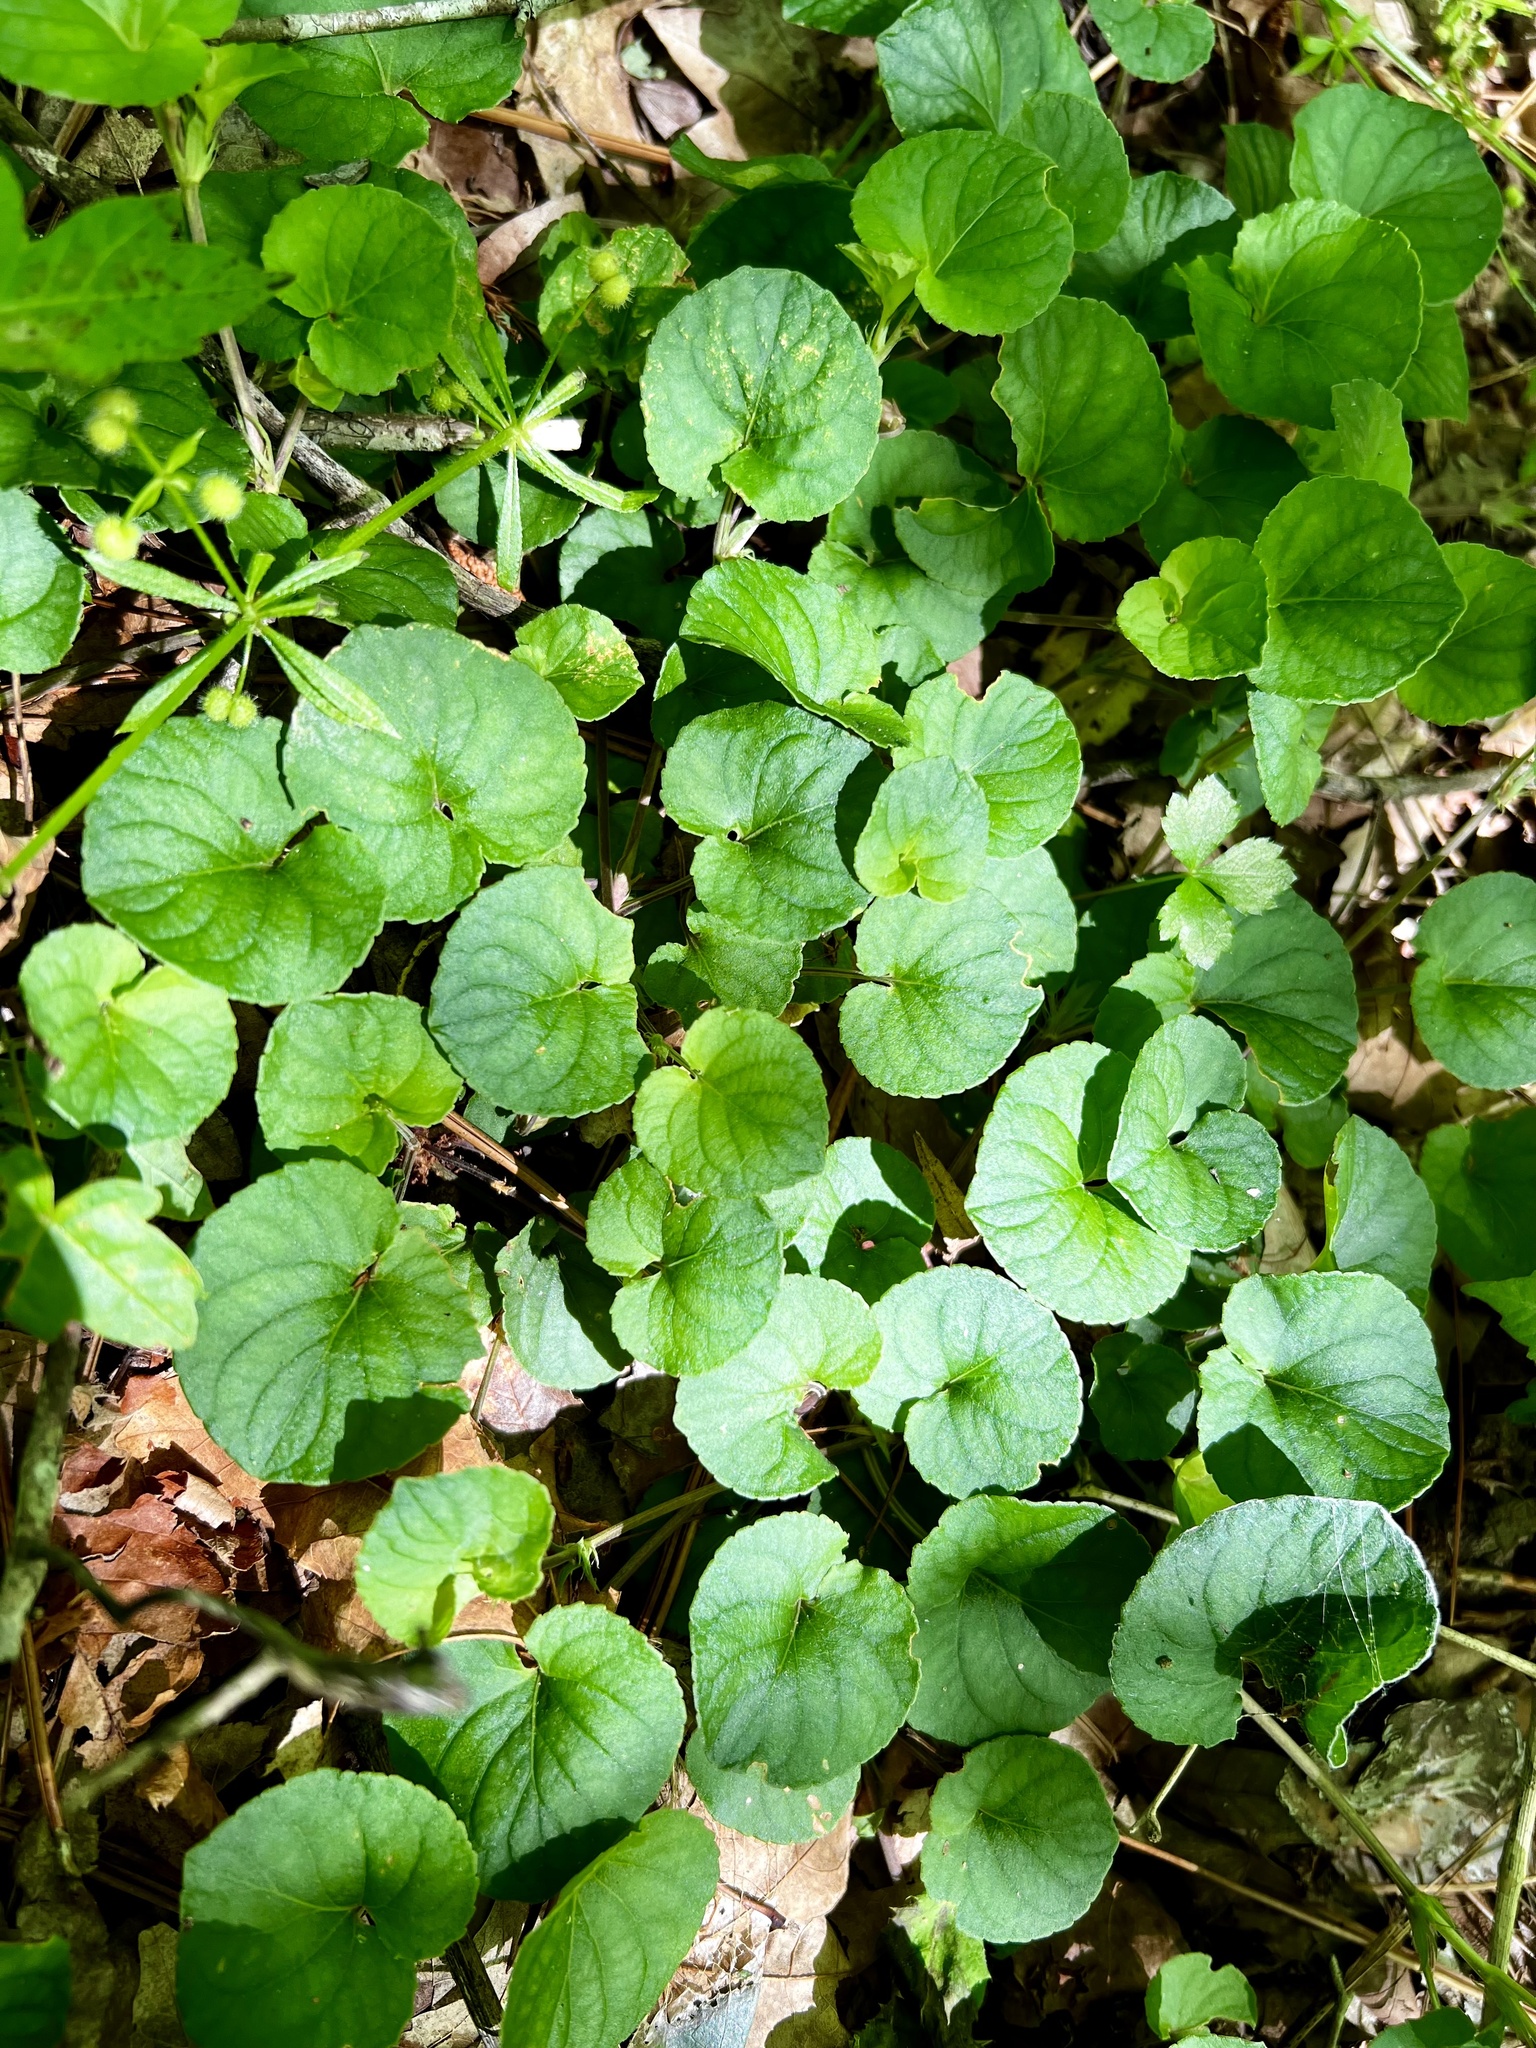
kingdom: Plantae
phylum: Tracheophyta
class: Magnoliopsida
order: Malpighiales
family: Violaceae
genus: Viola
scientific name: Viola walteri
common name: Prostrate southern violet
